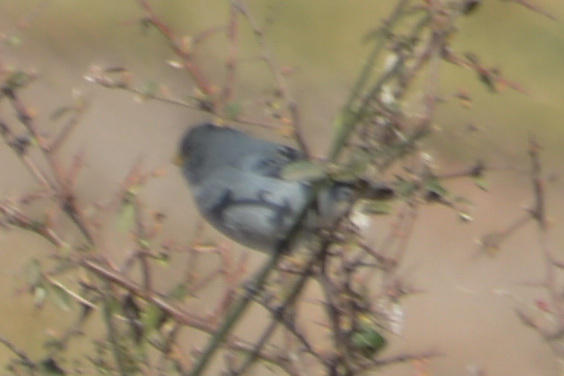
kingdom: Animalia
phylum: Chordata
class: Aves
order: Passeriformes
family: Thraupidae
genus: Catamenia
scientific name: Catamenia analis
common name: Band-tailed seedeater
